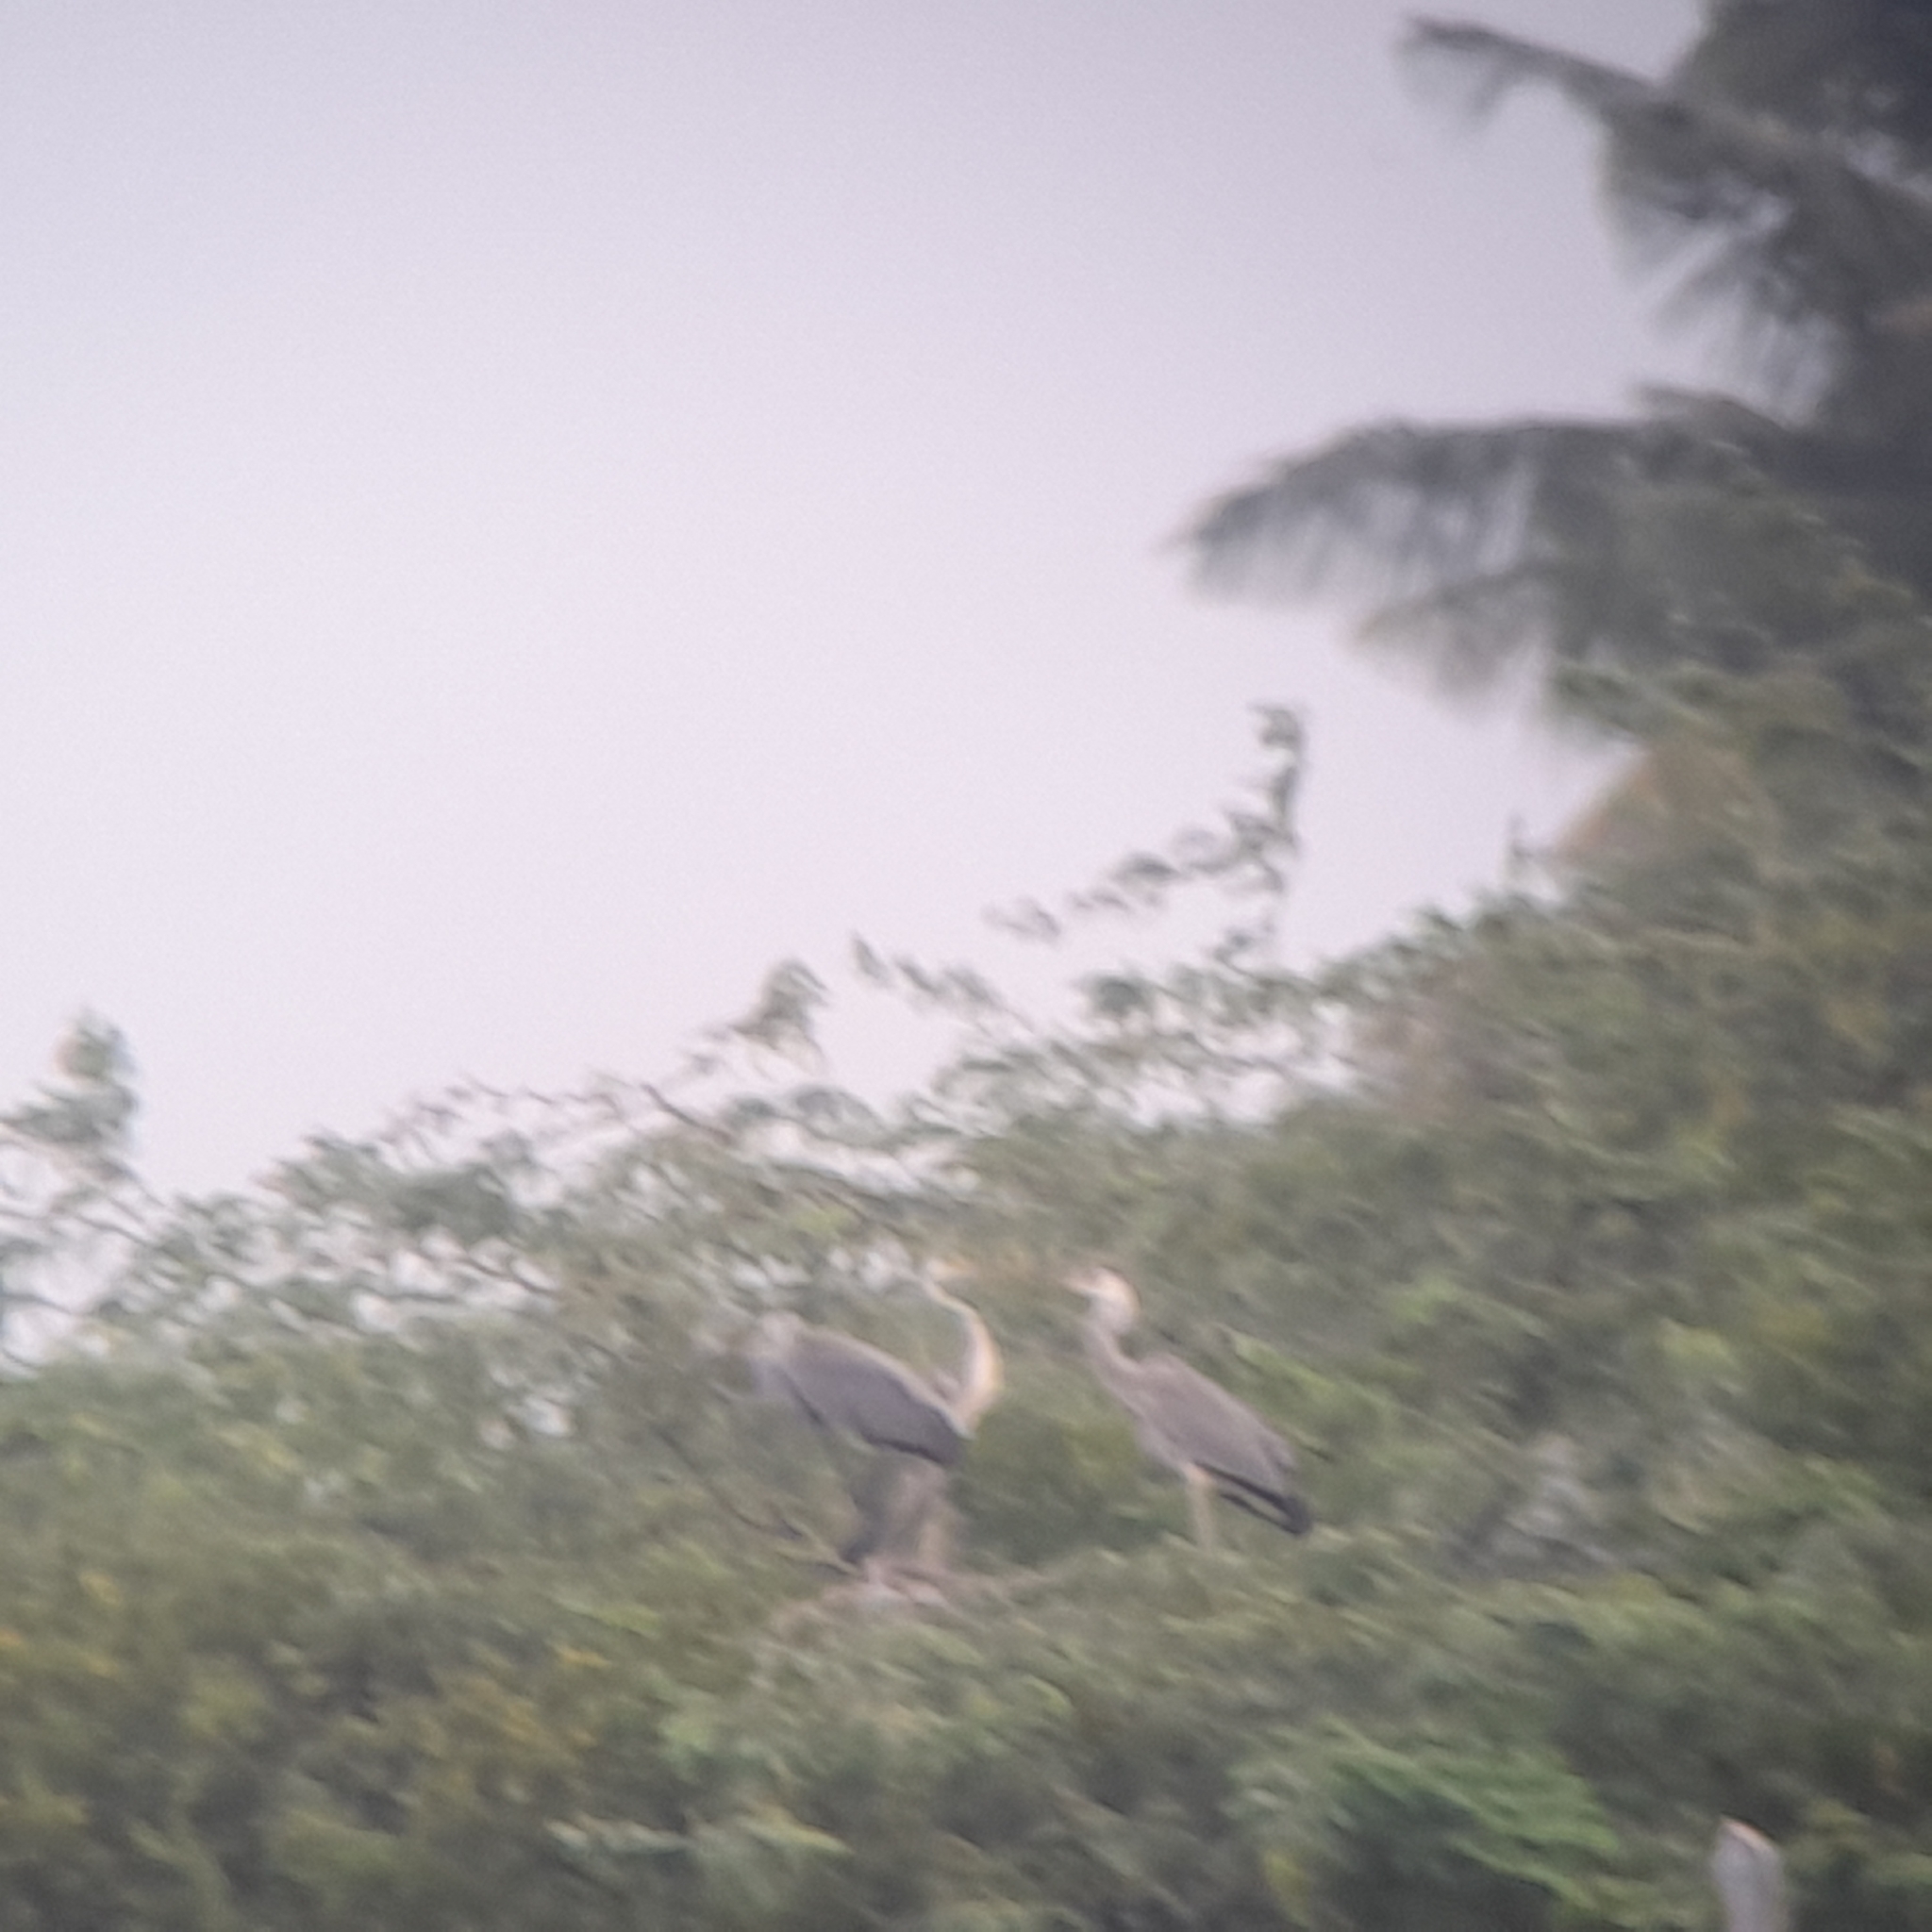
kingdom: Animalia
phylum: Chordata
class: Aves
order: Pelecaniformes
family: Ardeidae
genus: Ardea
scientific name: Ardea cinerea
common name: Grey heron
